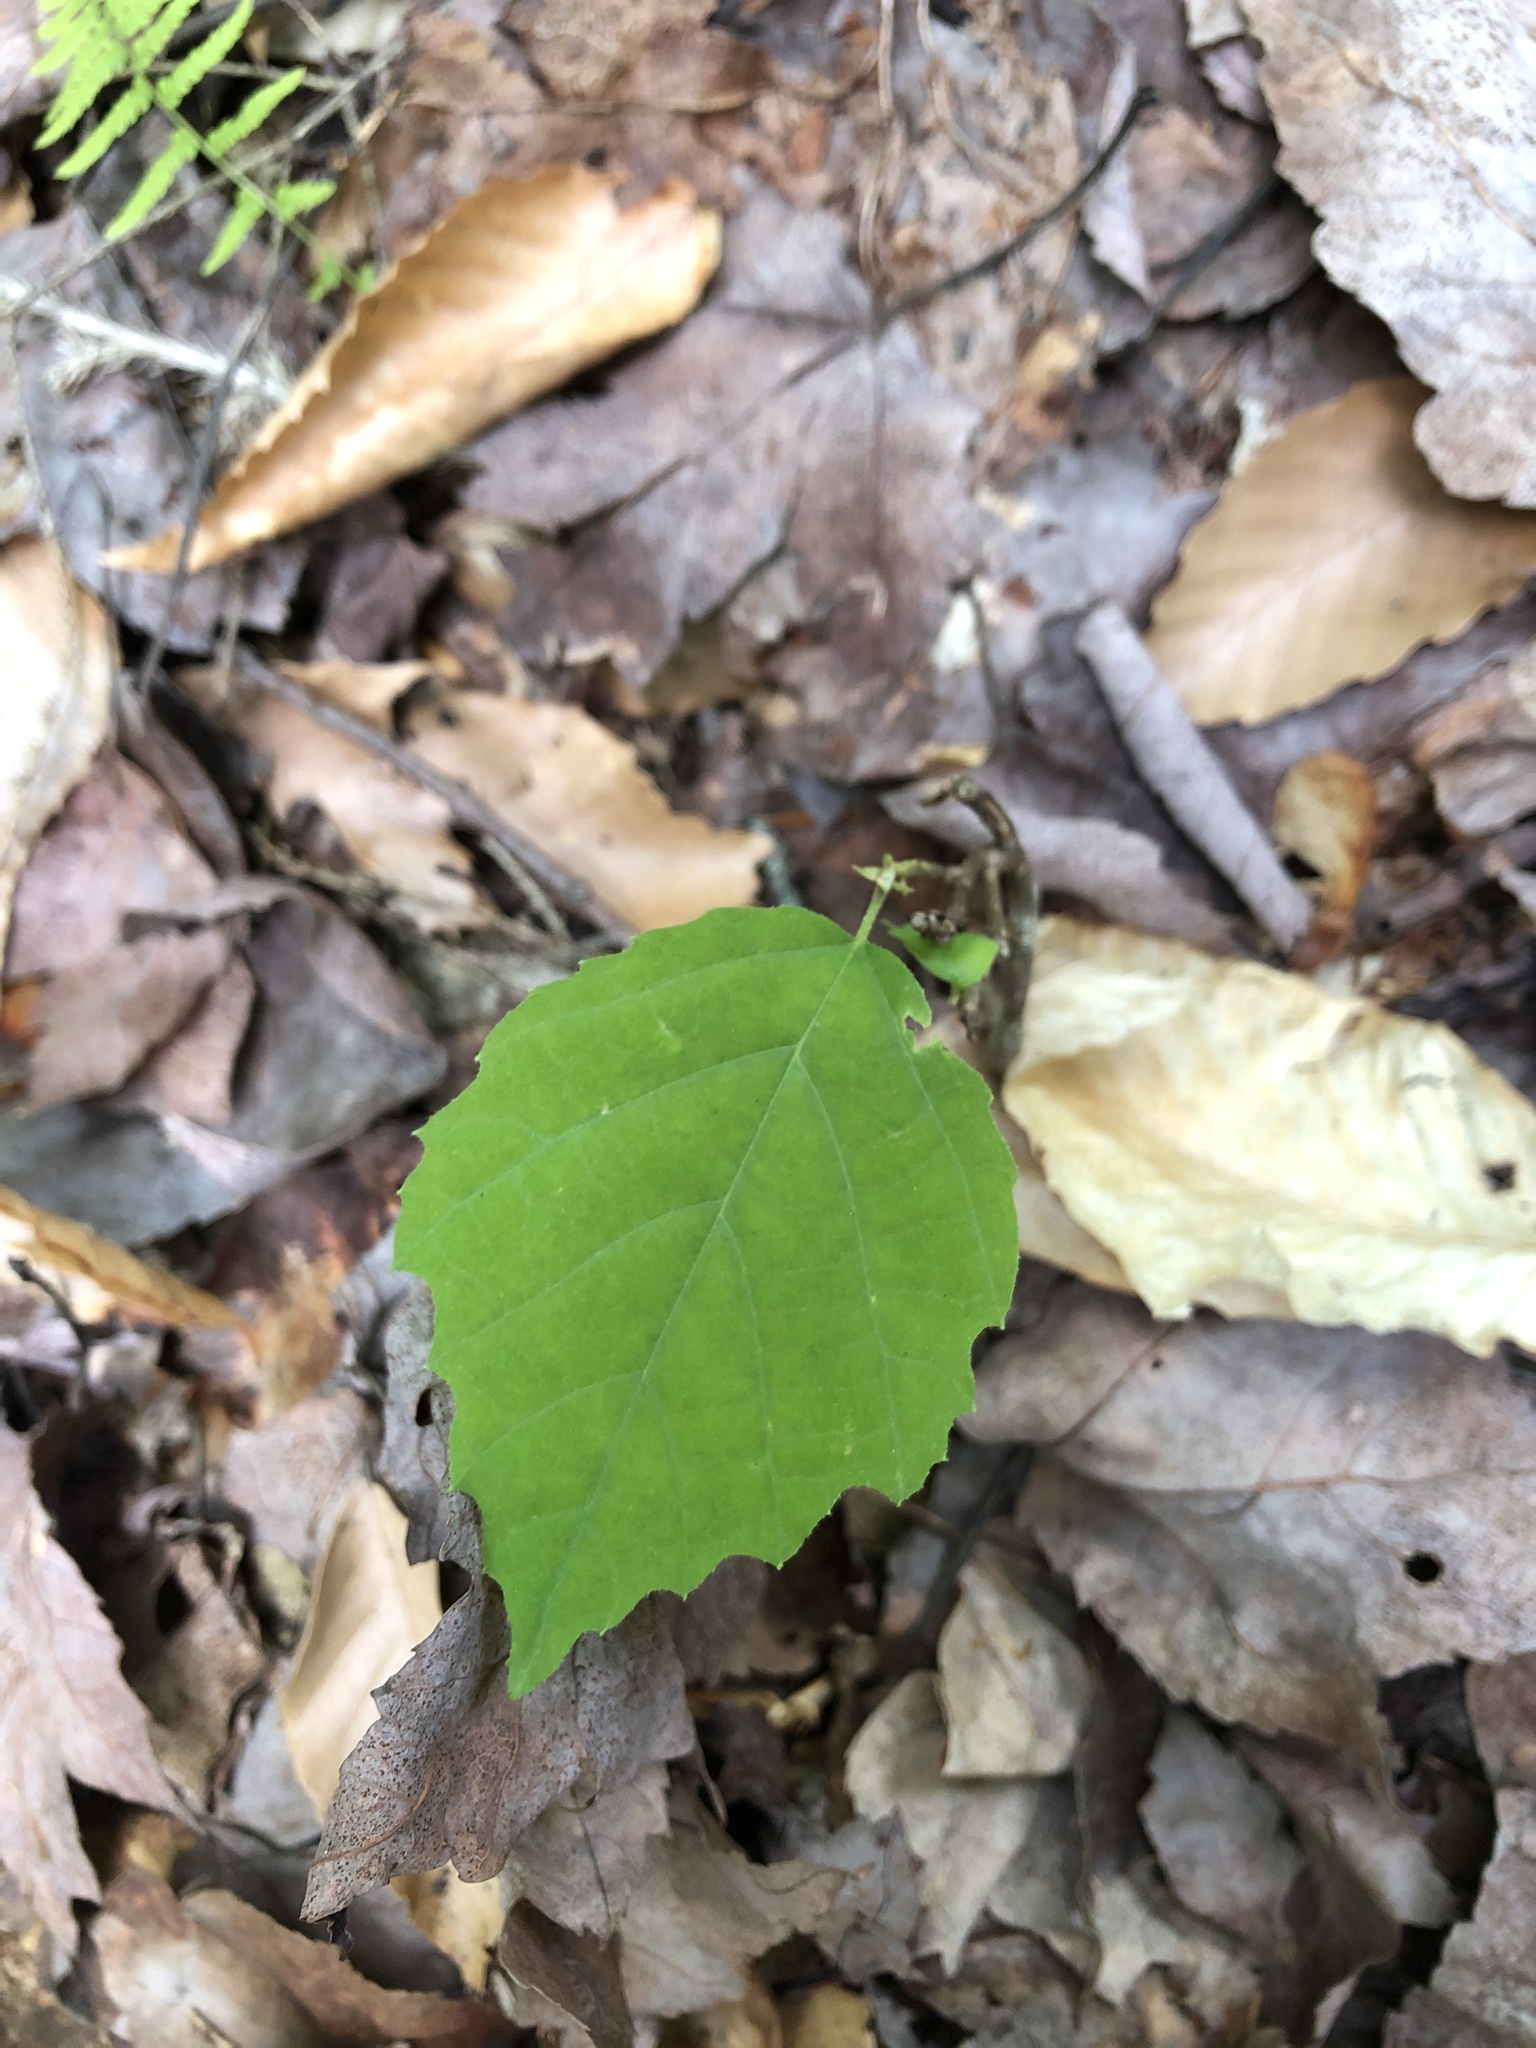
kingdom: Plantae
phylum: Tracheophyta
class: Magnoliopsida
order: Saxifragales
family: Hamamelidaceae
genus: Hamamelis
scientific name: Hamamelis virginiana
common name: Witch-hazel
